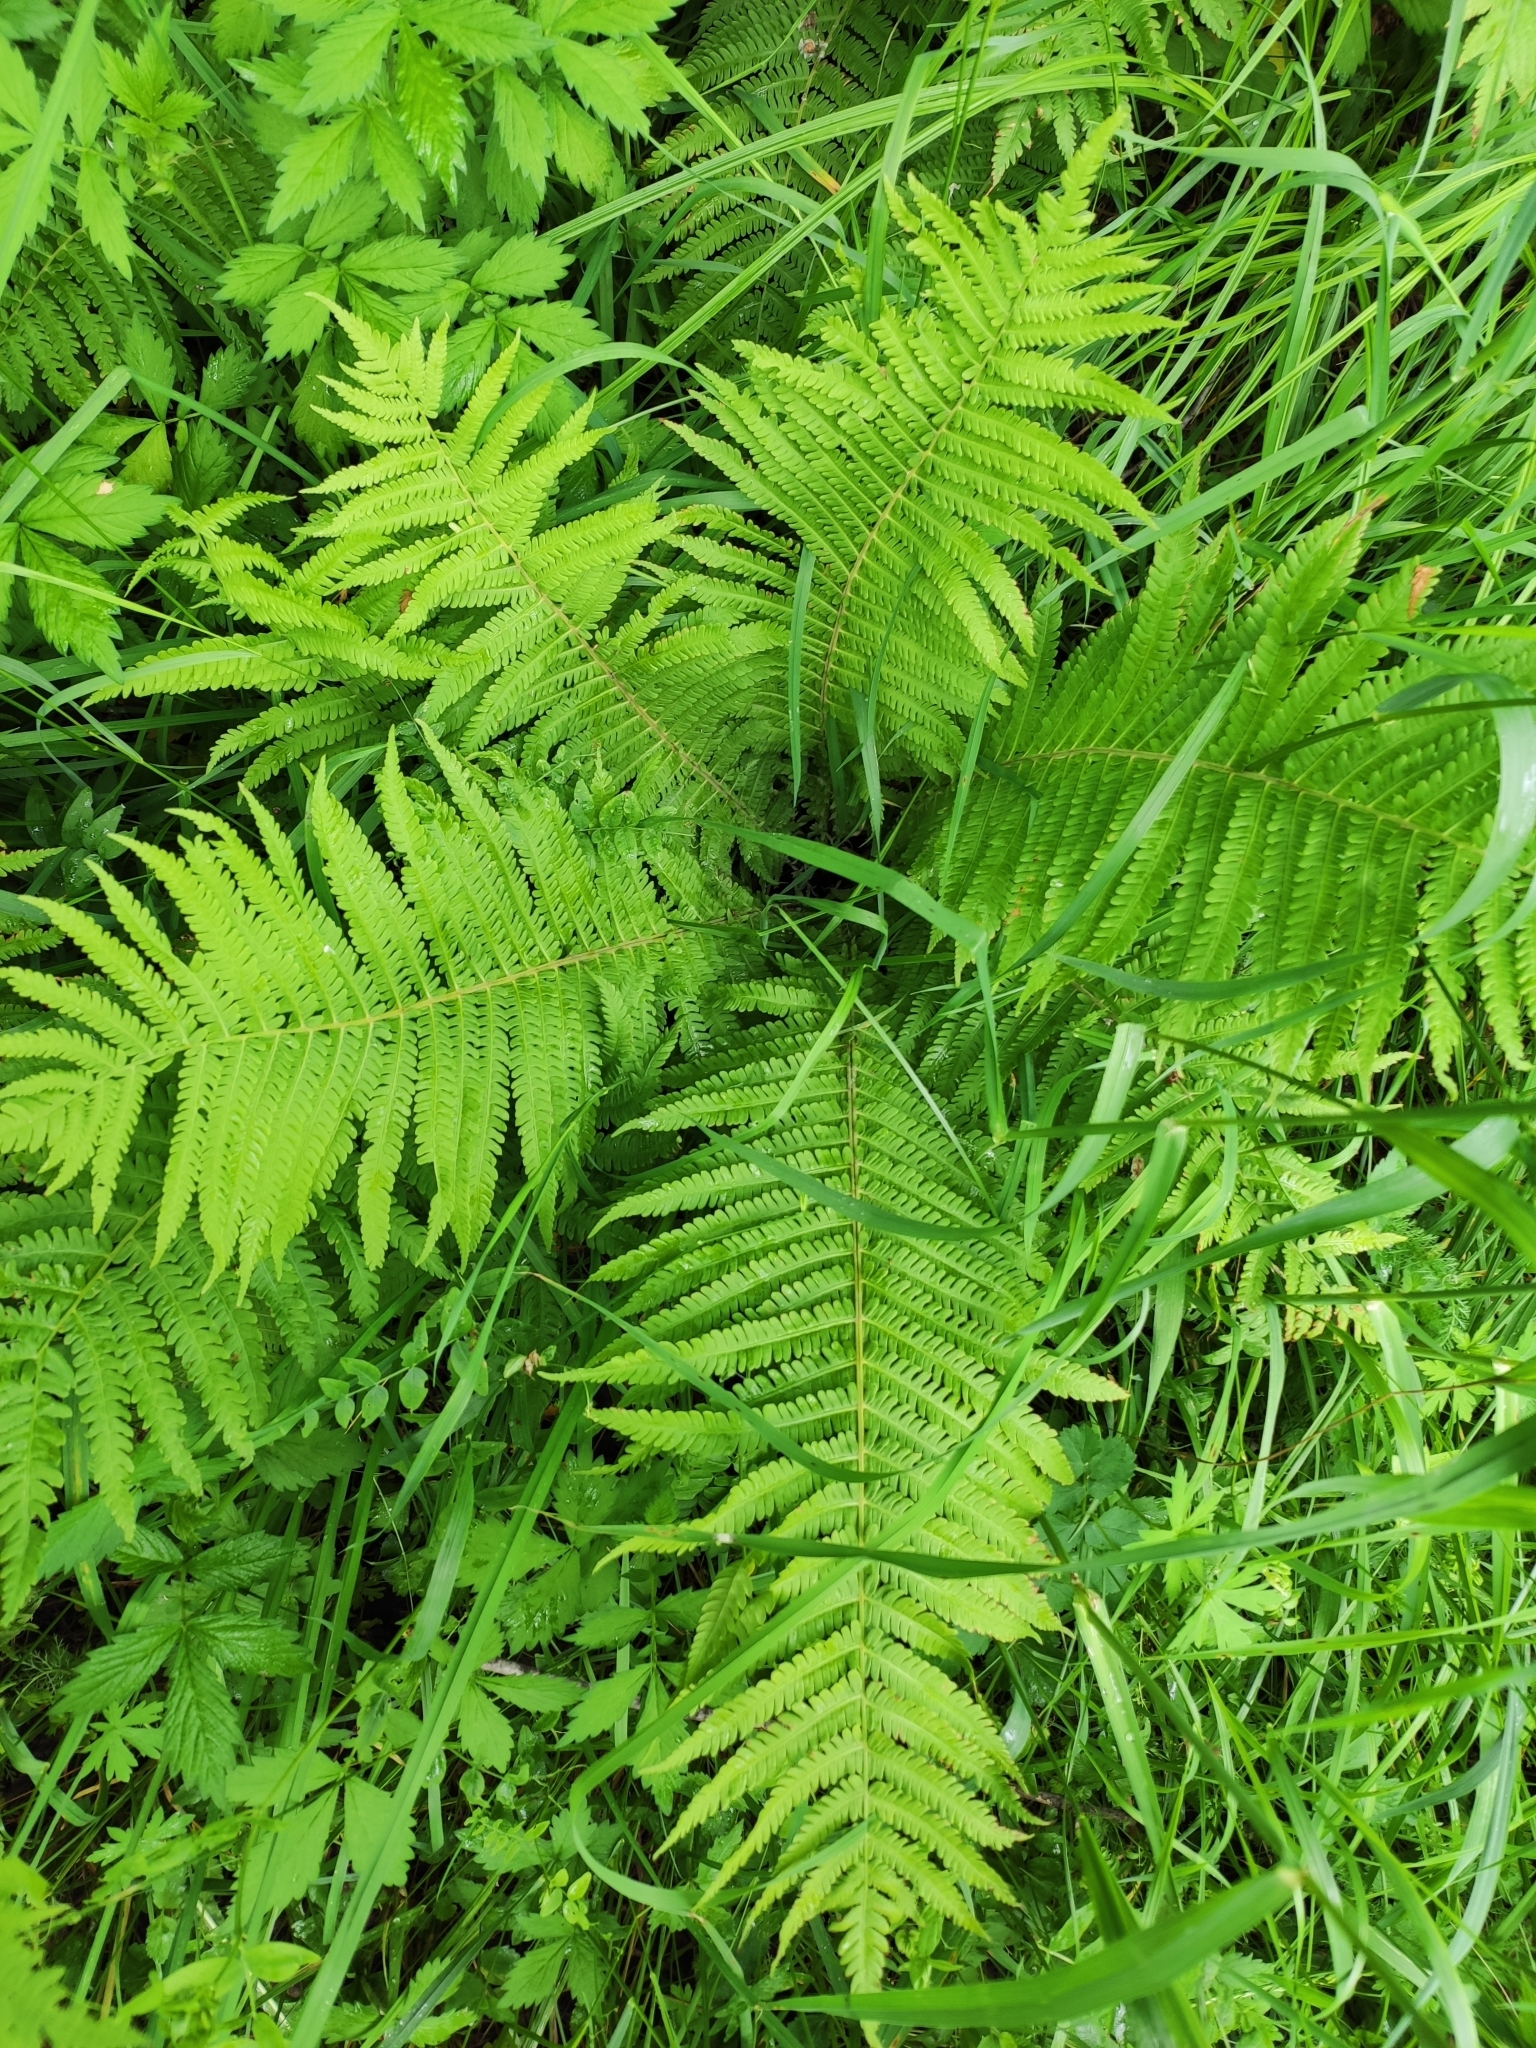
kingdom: Plantae
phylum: Tracheophyta
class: Polypodiopsida
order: Polypodiales
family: Dryopteridaceae
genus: Dryopteris
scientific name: Dryopteris filix-mas
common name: Male fern
